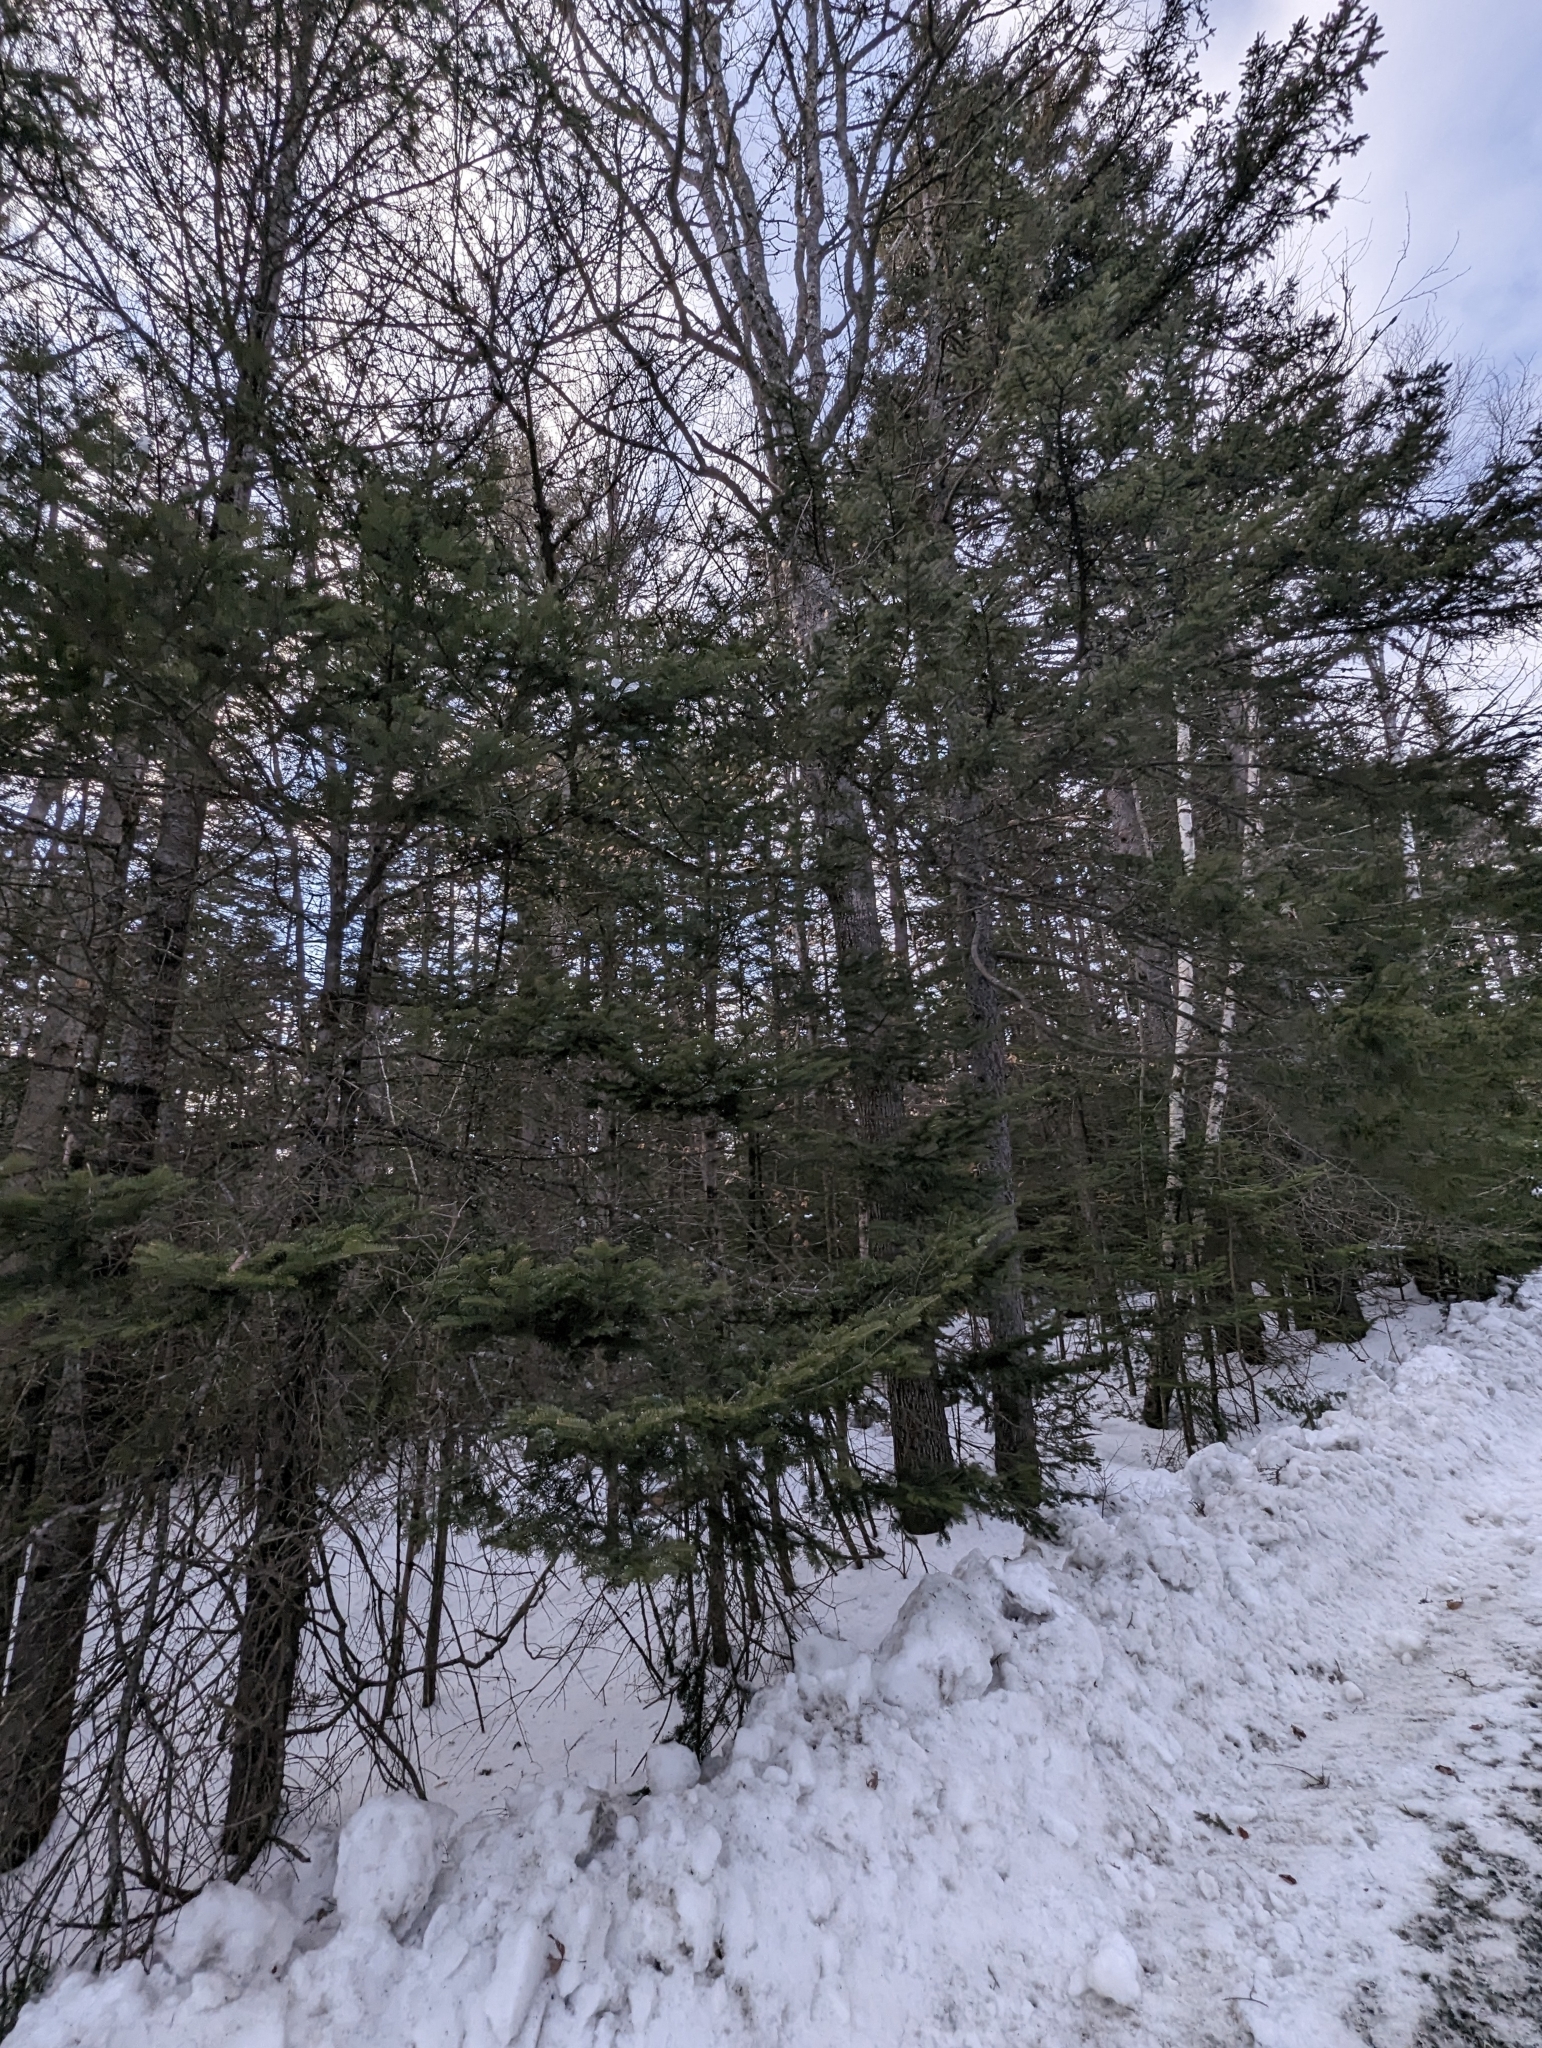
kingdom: Plantae
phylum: Tracheophyta
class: Pinopsida
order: Pinales
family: Pinaceae
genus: Abies
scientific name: Abies balsamea
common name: Balsam fir
